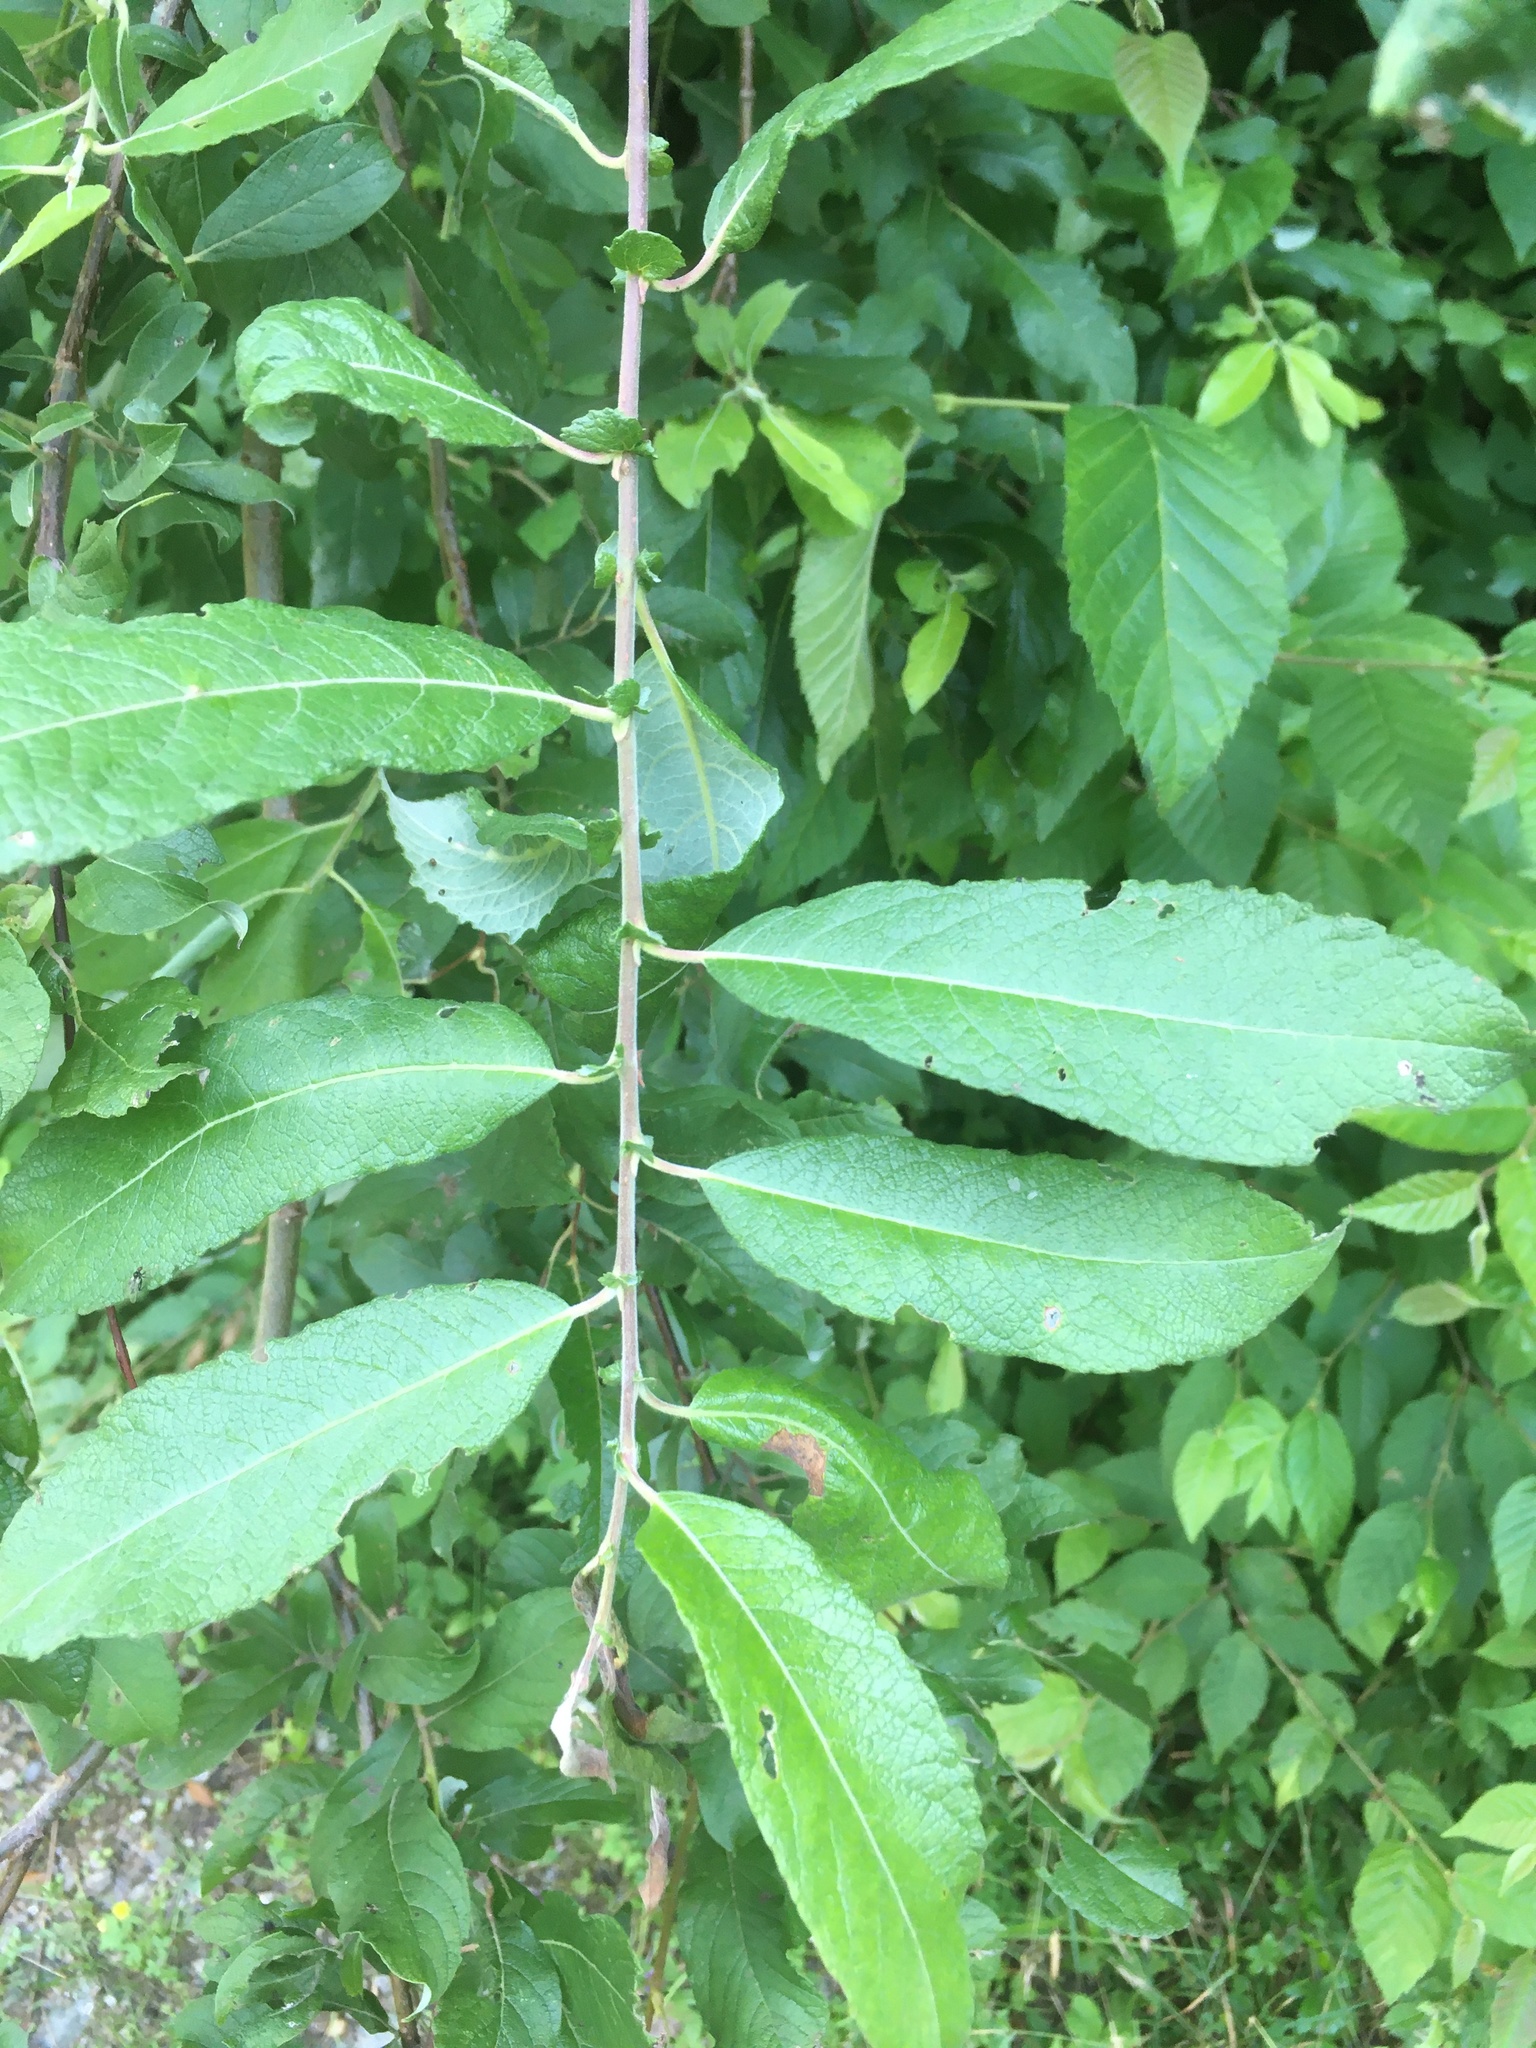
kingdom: Plantae
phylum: Tracheophyta
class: Magnoliopsida
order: Malpighiales
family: Salicaceae
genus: Salix
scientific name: Salix bebbiana
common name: Bebb's willow
